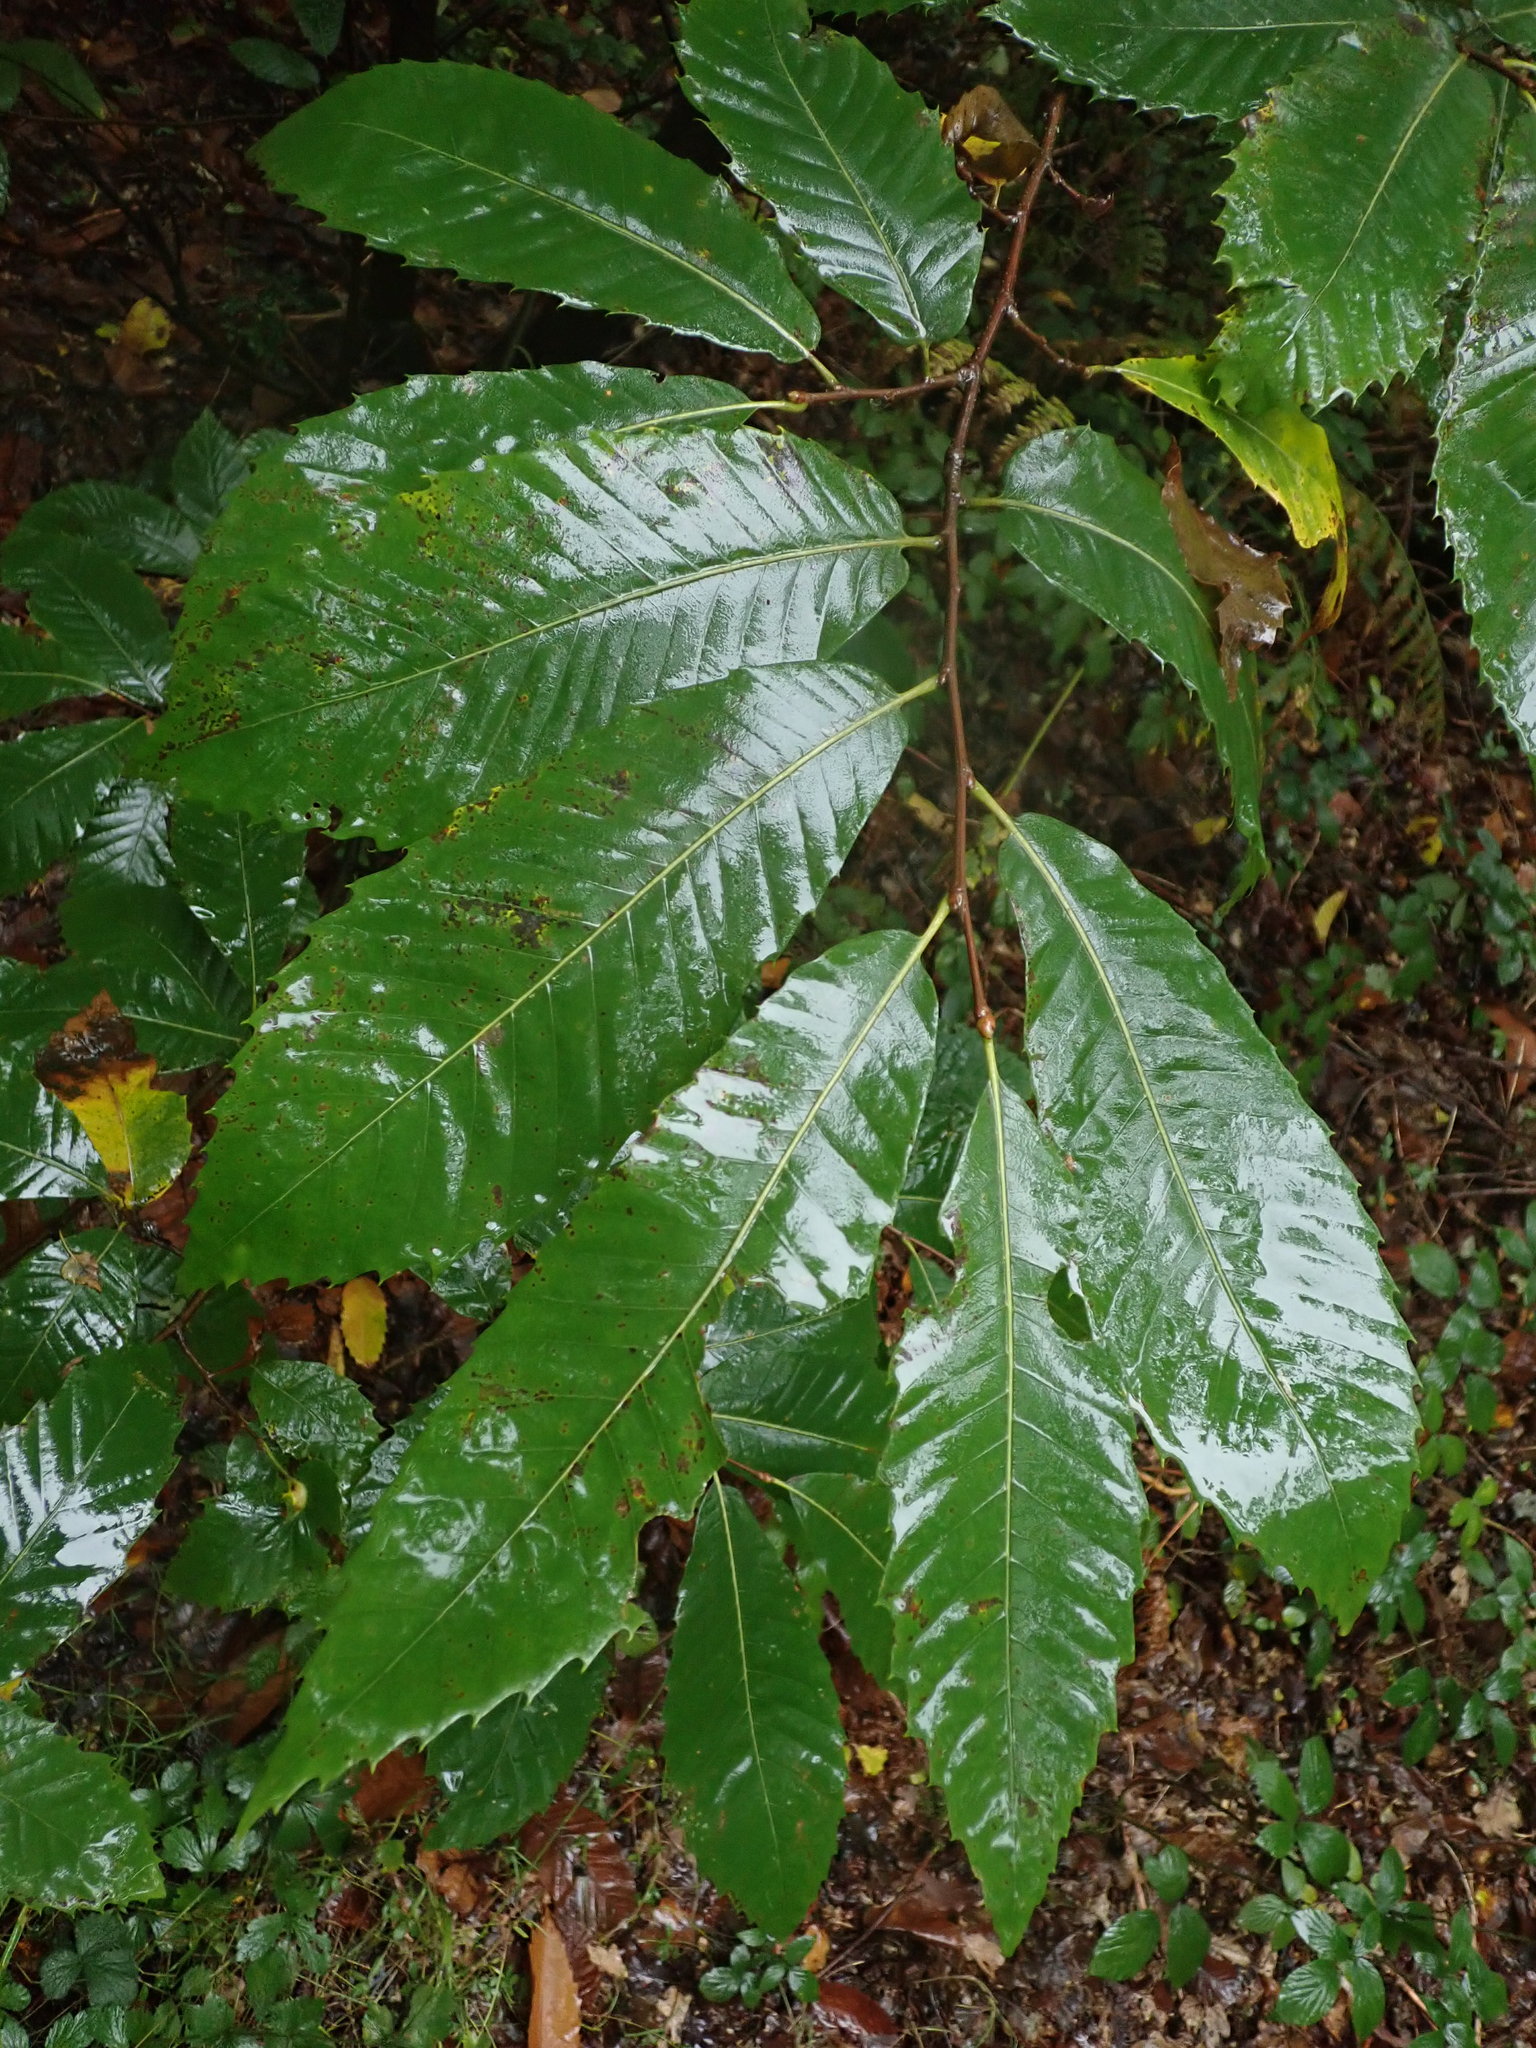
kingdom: Plantae
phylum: Tracheophyta
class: Magnoliopsida
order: Fagales
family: Fagaceae
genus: Castanea
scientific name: Castanea sativa
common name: Sweet chestnut
